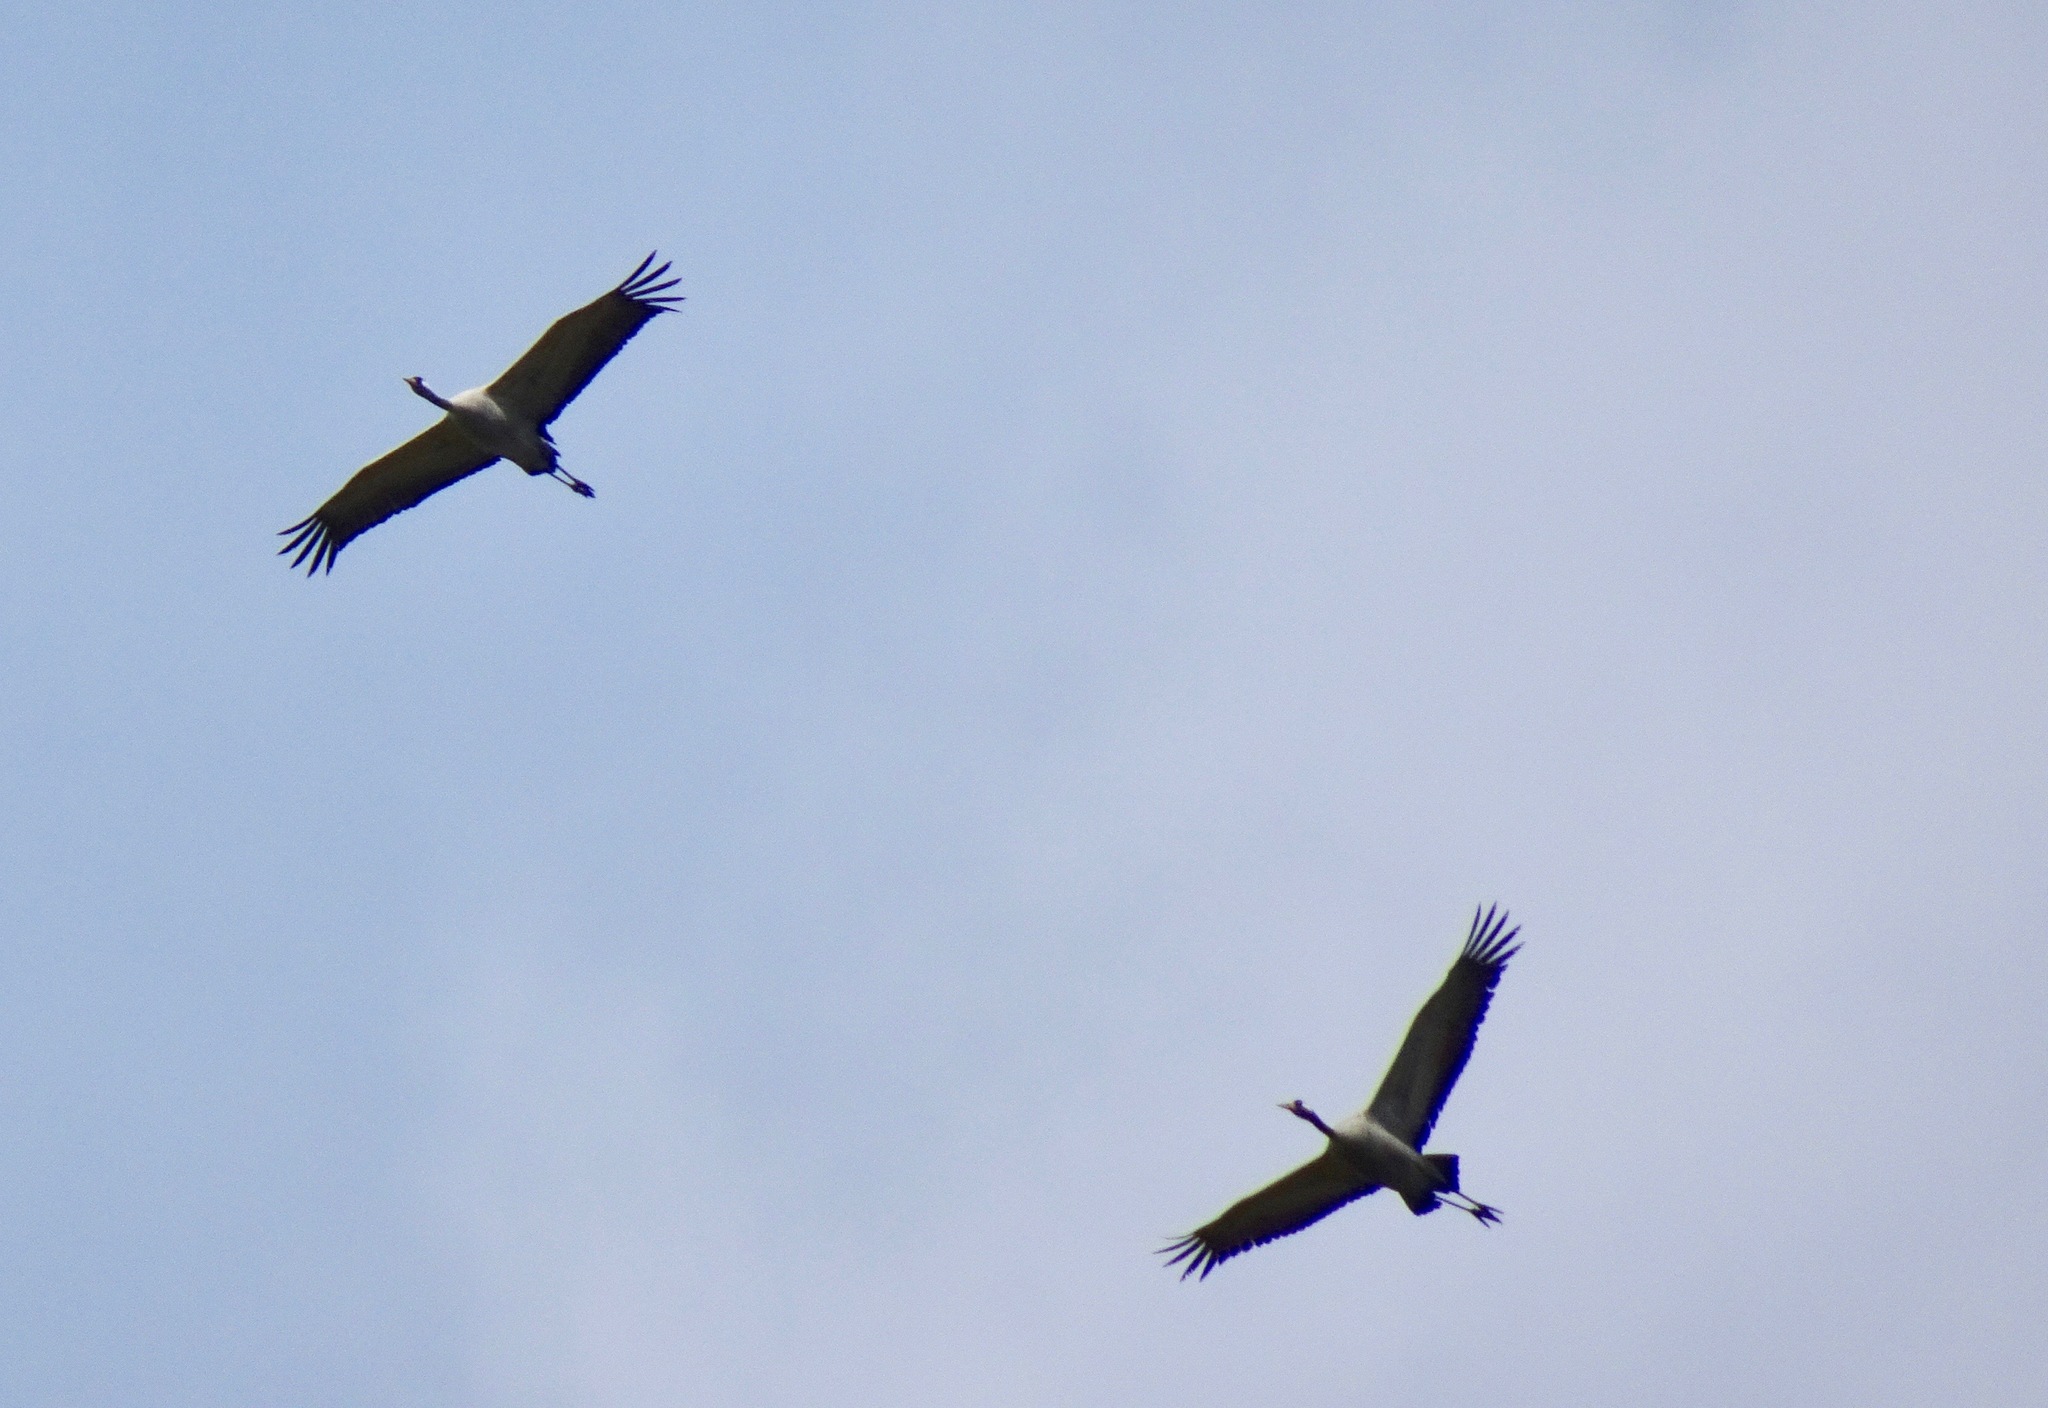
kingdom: Animalia
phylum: Chordata
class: Aves
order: Gruiformes
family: Gruidae
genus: Grus
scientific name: Grus grus
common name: Common crane
